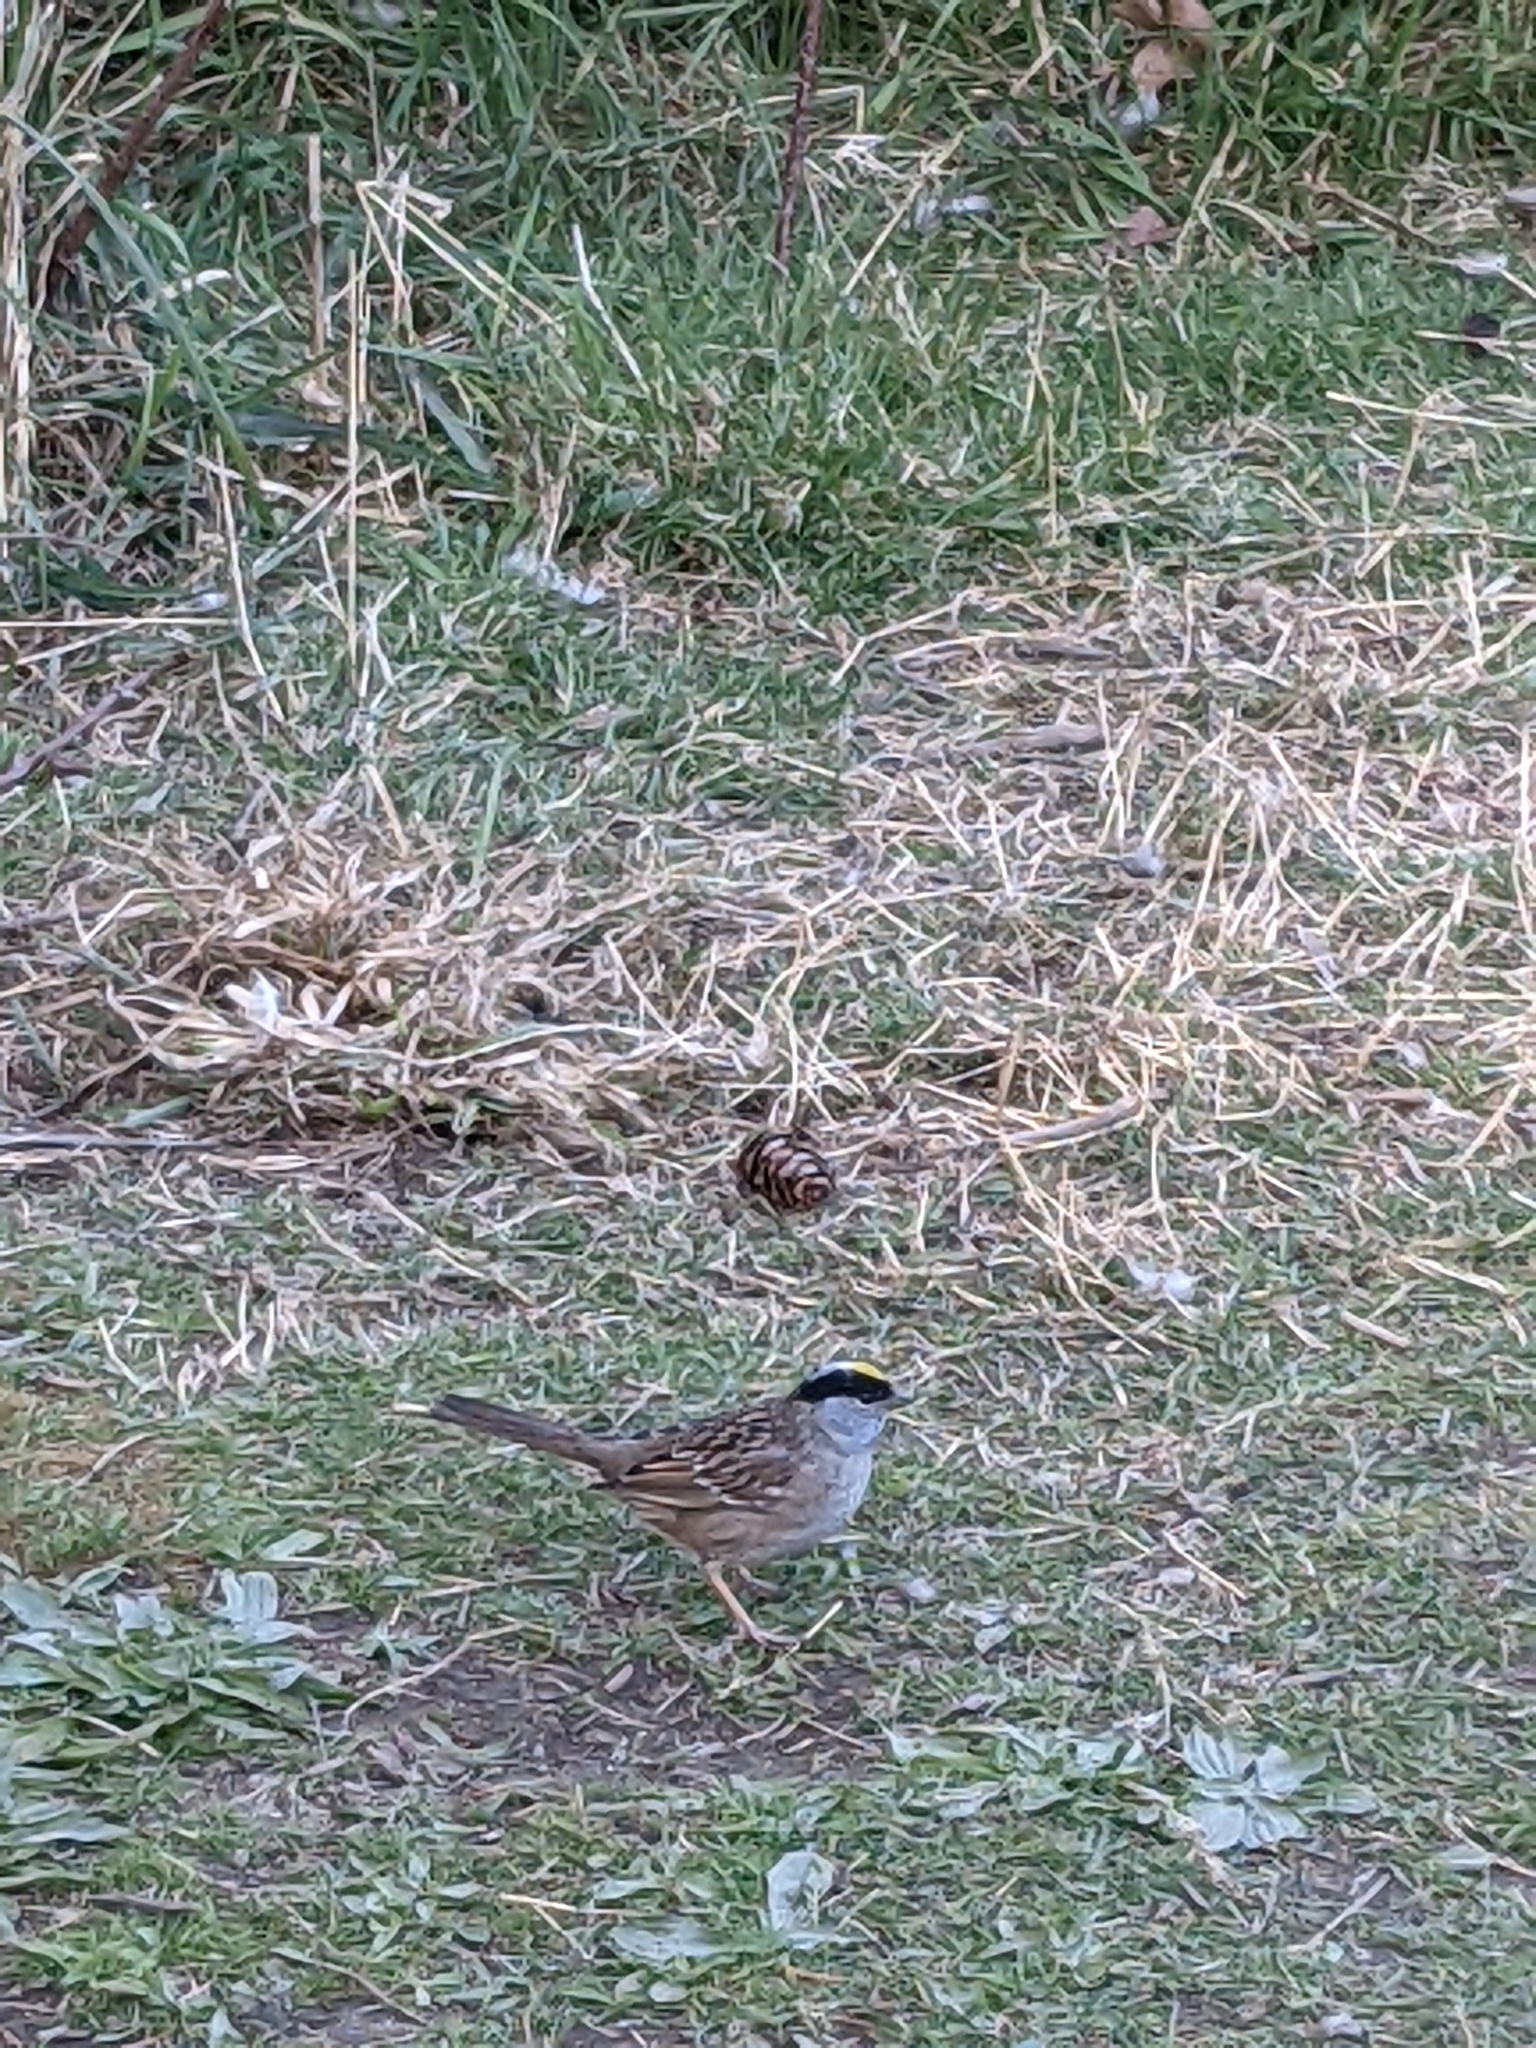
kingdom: Animalia
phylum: Chordata
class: Aves
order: Passeriformes
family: Passerellidae
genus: Zonotrichia
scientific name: Zonotrichia atricapilla
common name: Golden-crowned sparrow
